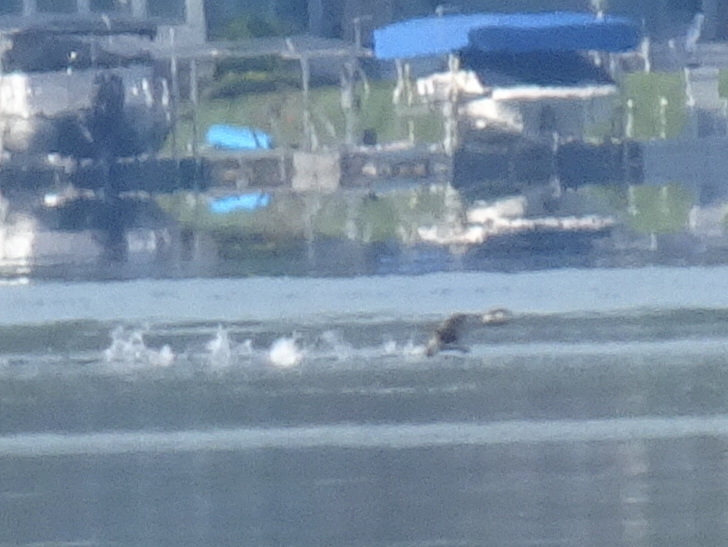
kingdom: Animalia
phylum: Chordata
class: Aves
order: Gaviiformes
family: Gaviidae
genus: Gavia
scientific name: Gavia immer
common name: Common loon
